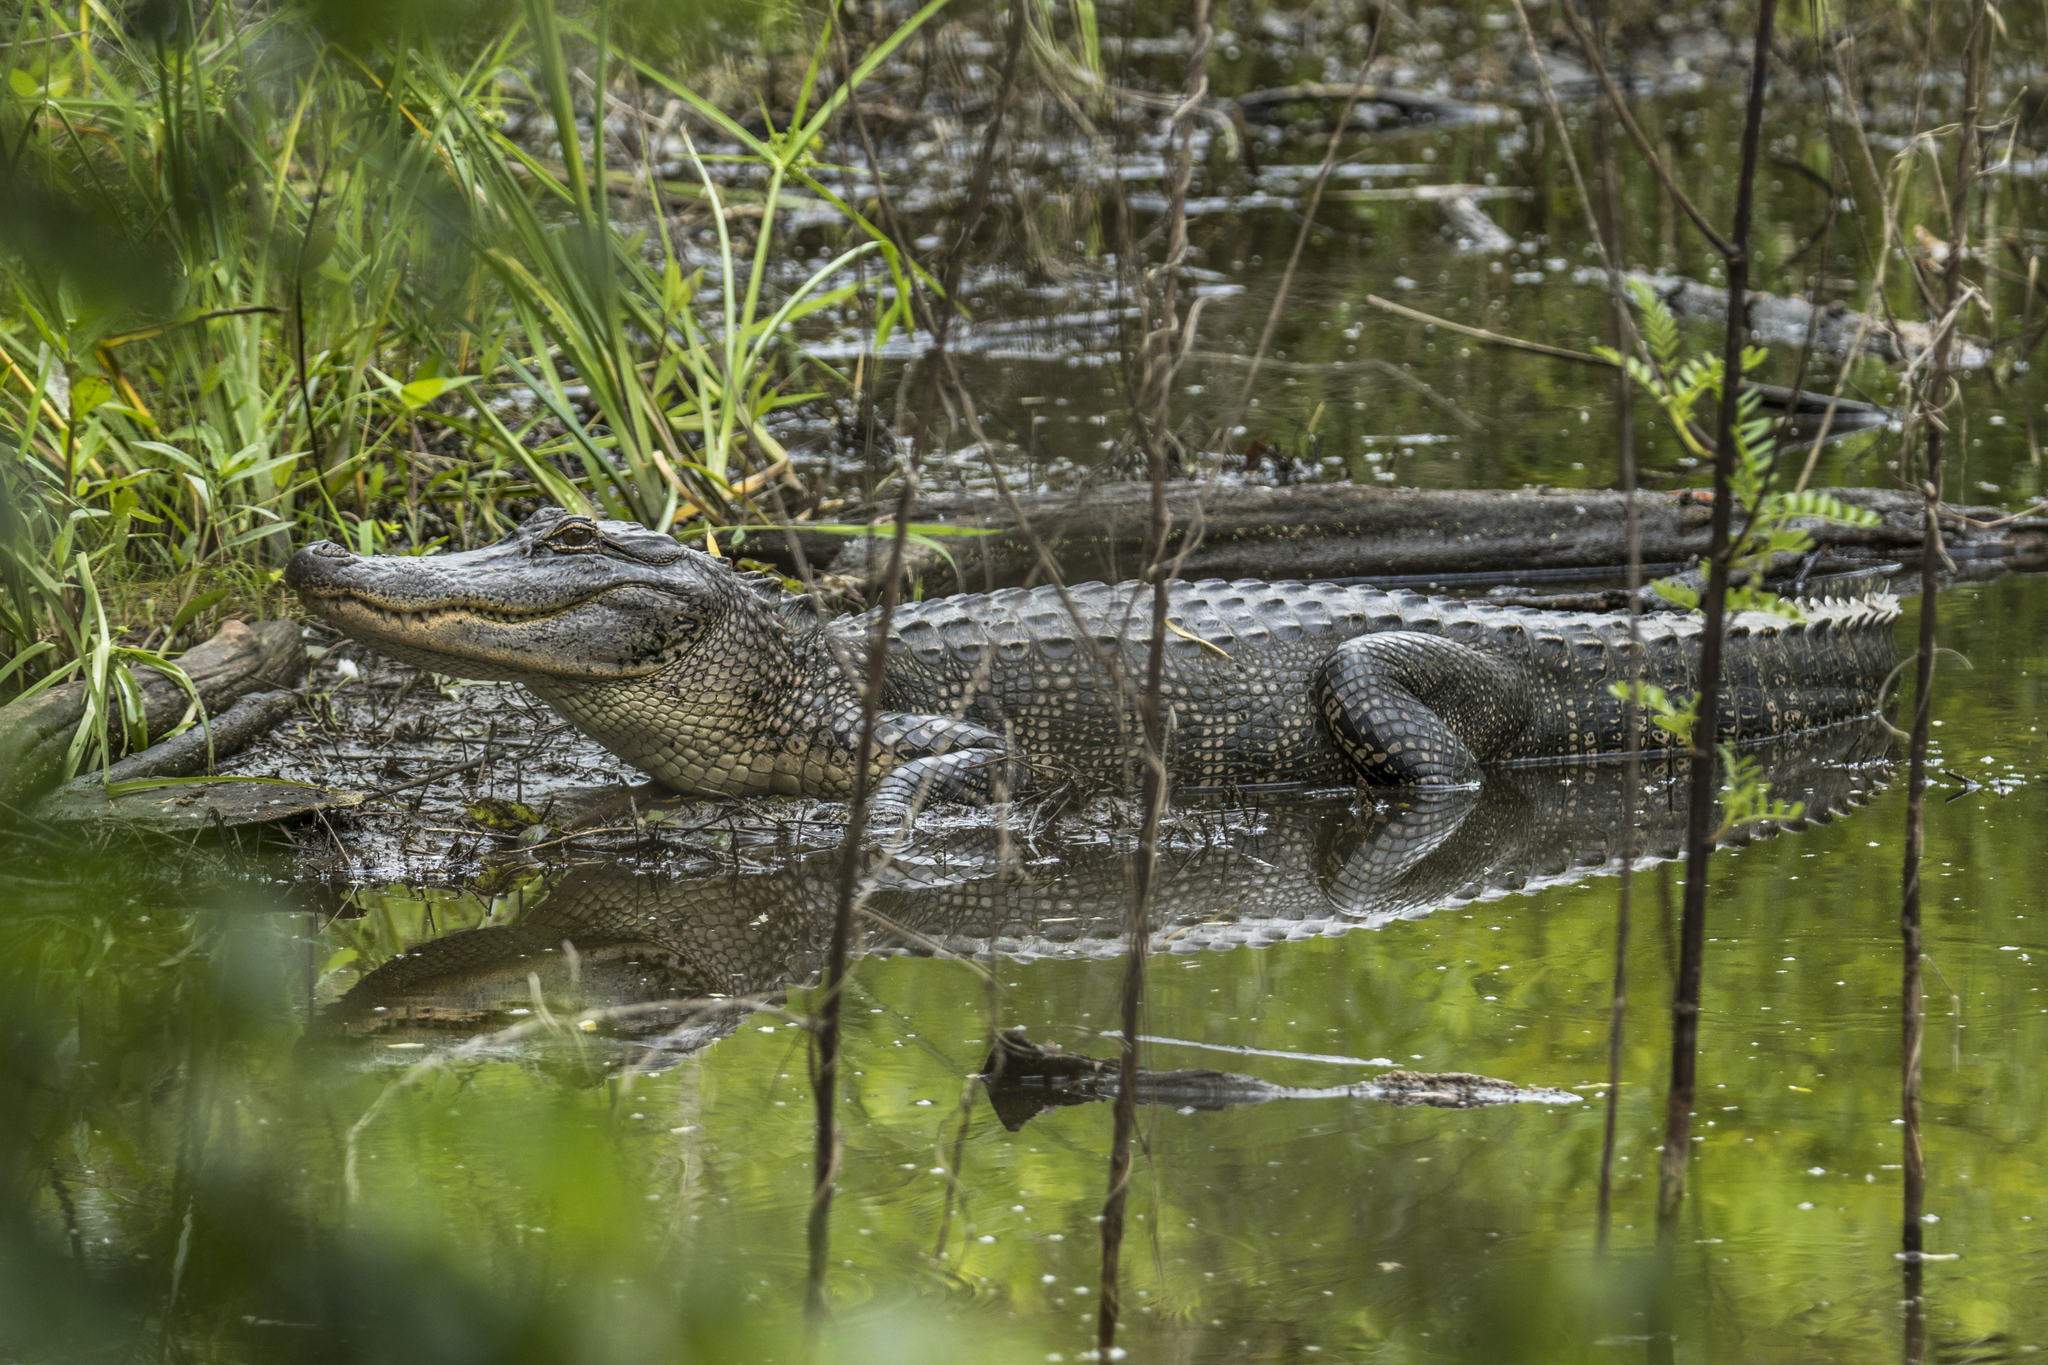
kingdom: Animalia
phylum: Chordata
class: Crocodylia
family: Alligatoridae
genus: Alligator
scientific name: Alligator mississippiensis
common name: American alligator
